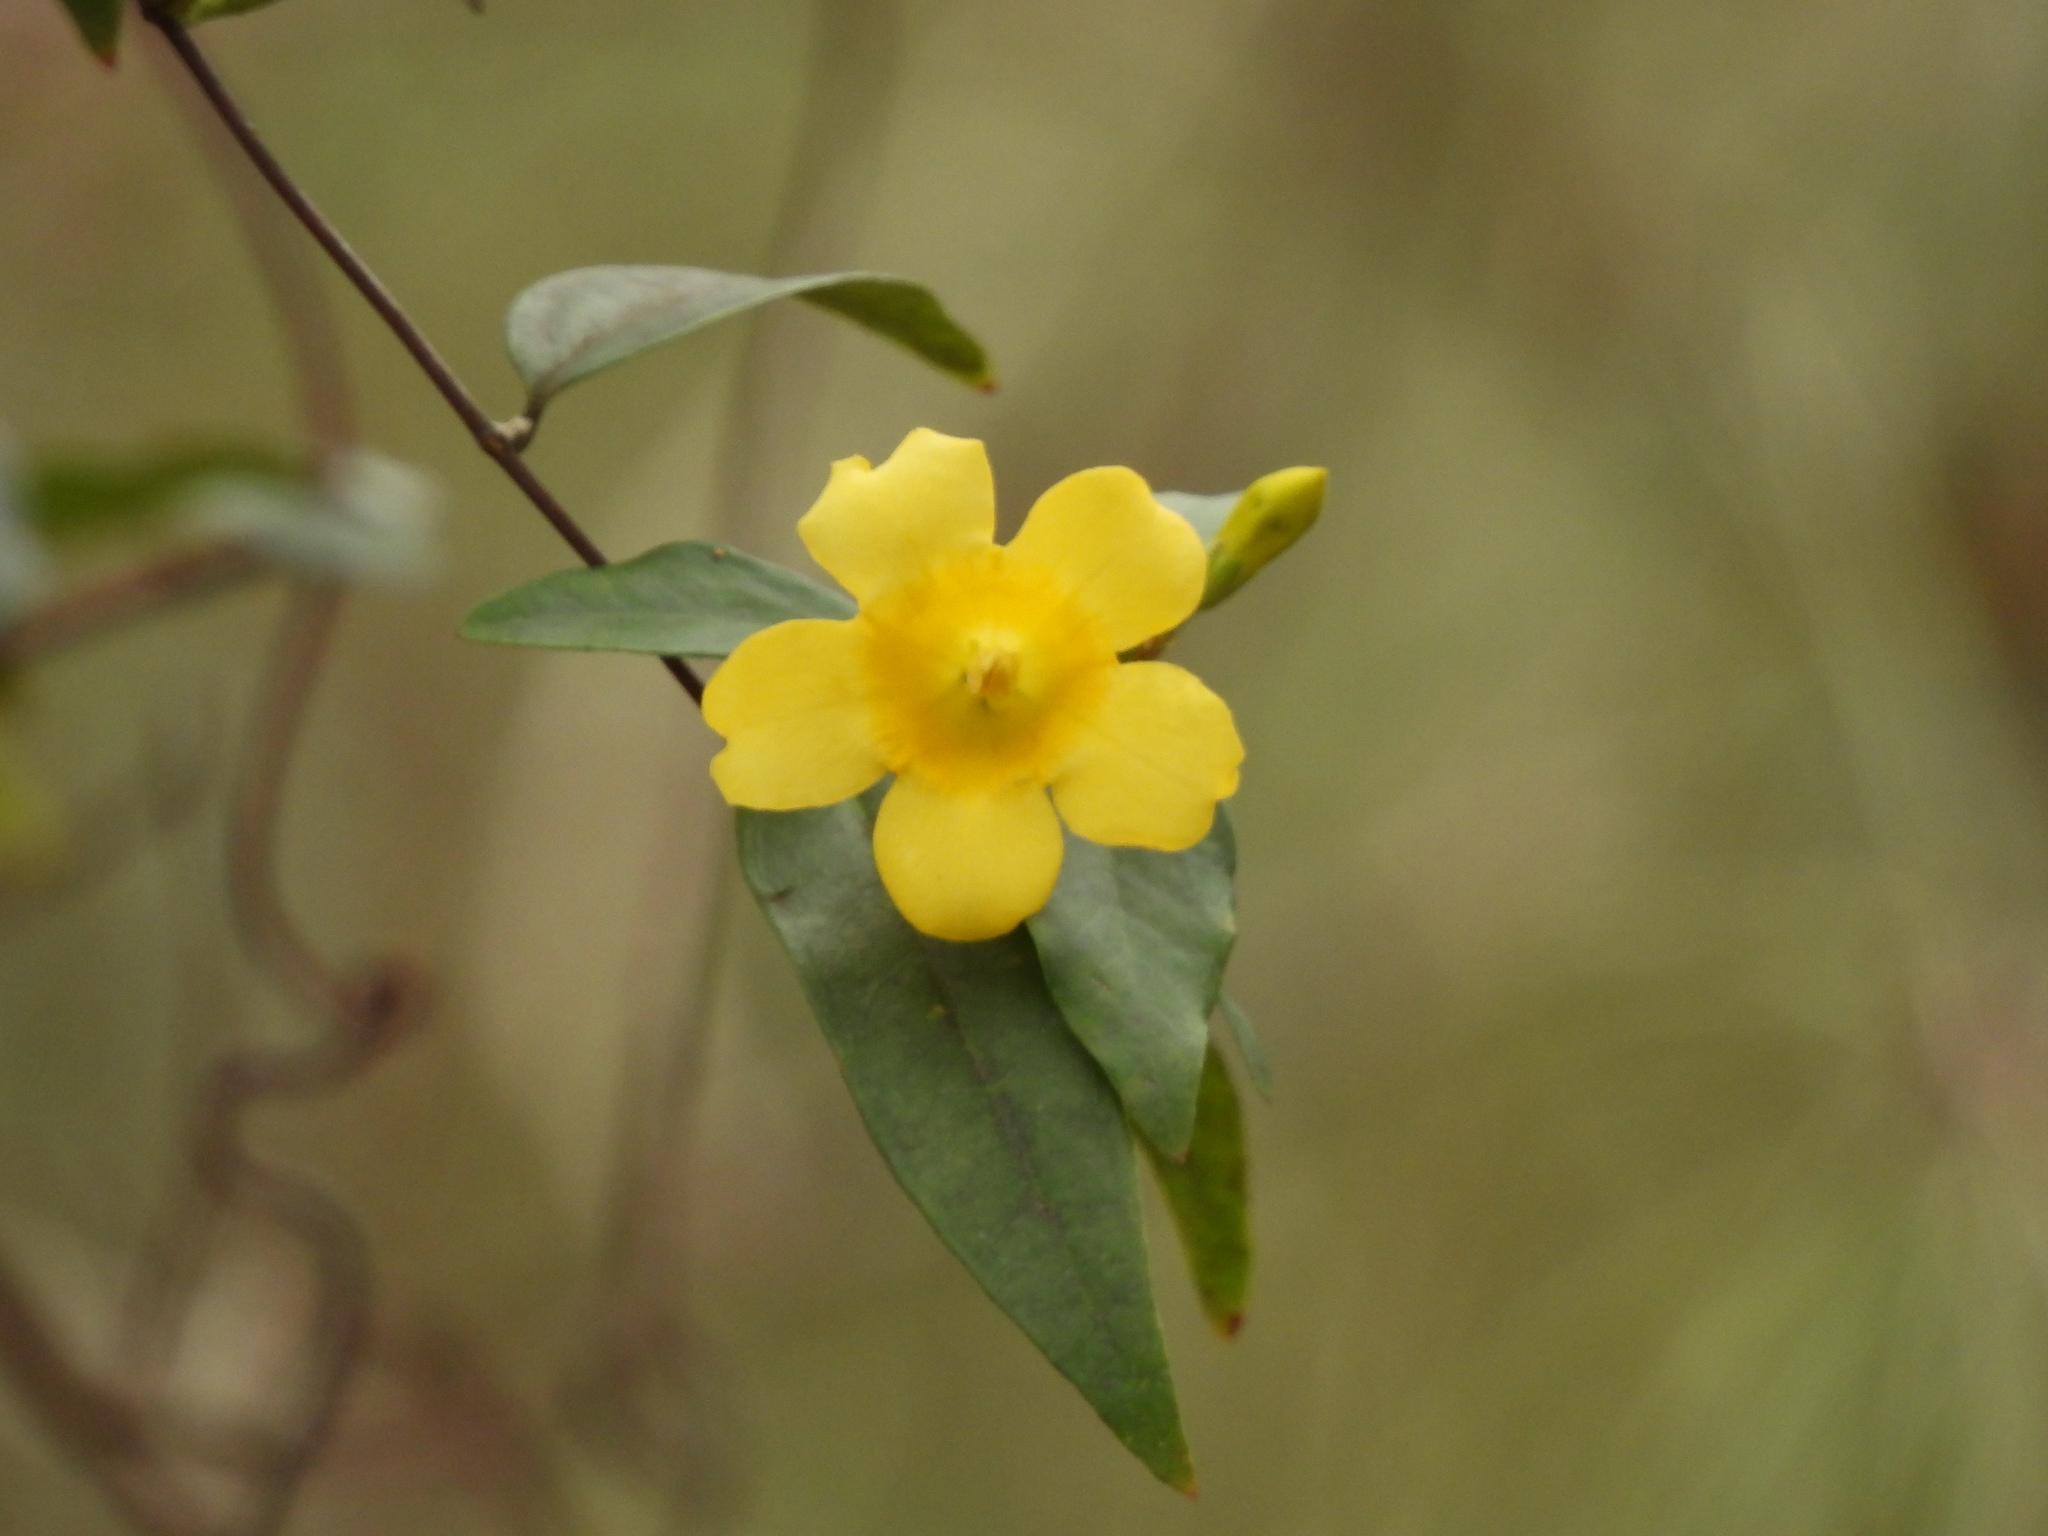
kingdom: Plantae
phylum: Tracheophyta
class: Magnoliopsida
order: Gentianales
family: Gelsemiaceae
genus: Gelsemium
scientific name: Gelsemium sempervirens
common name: Carolina-jasmine
